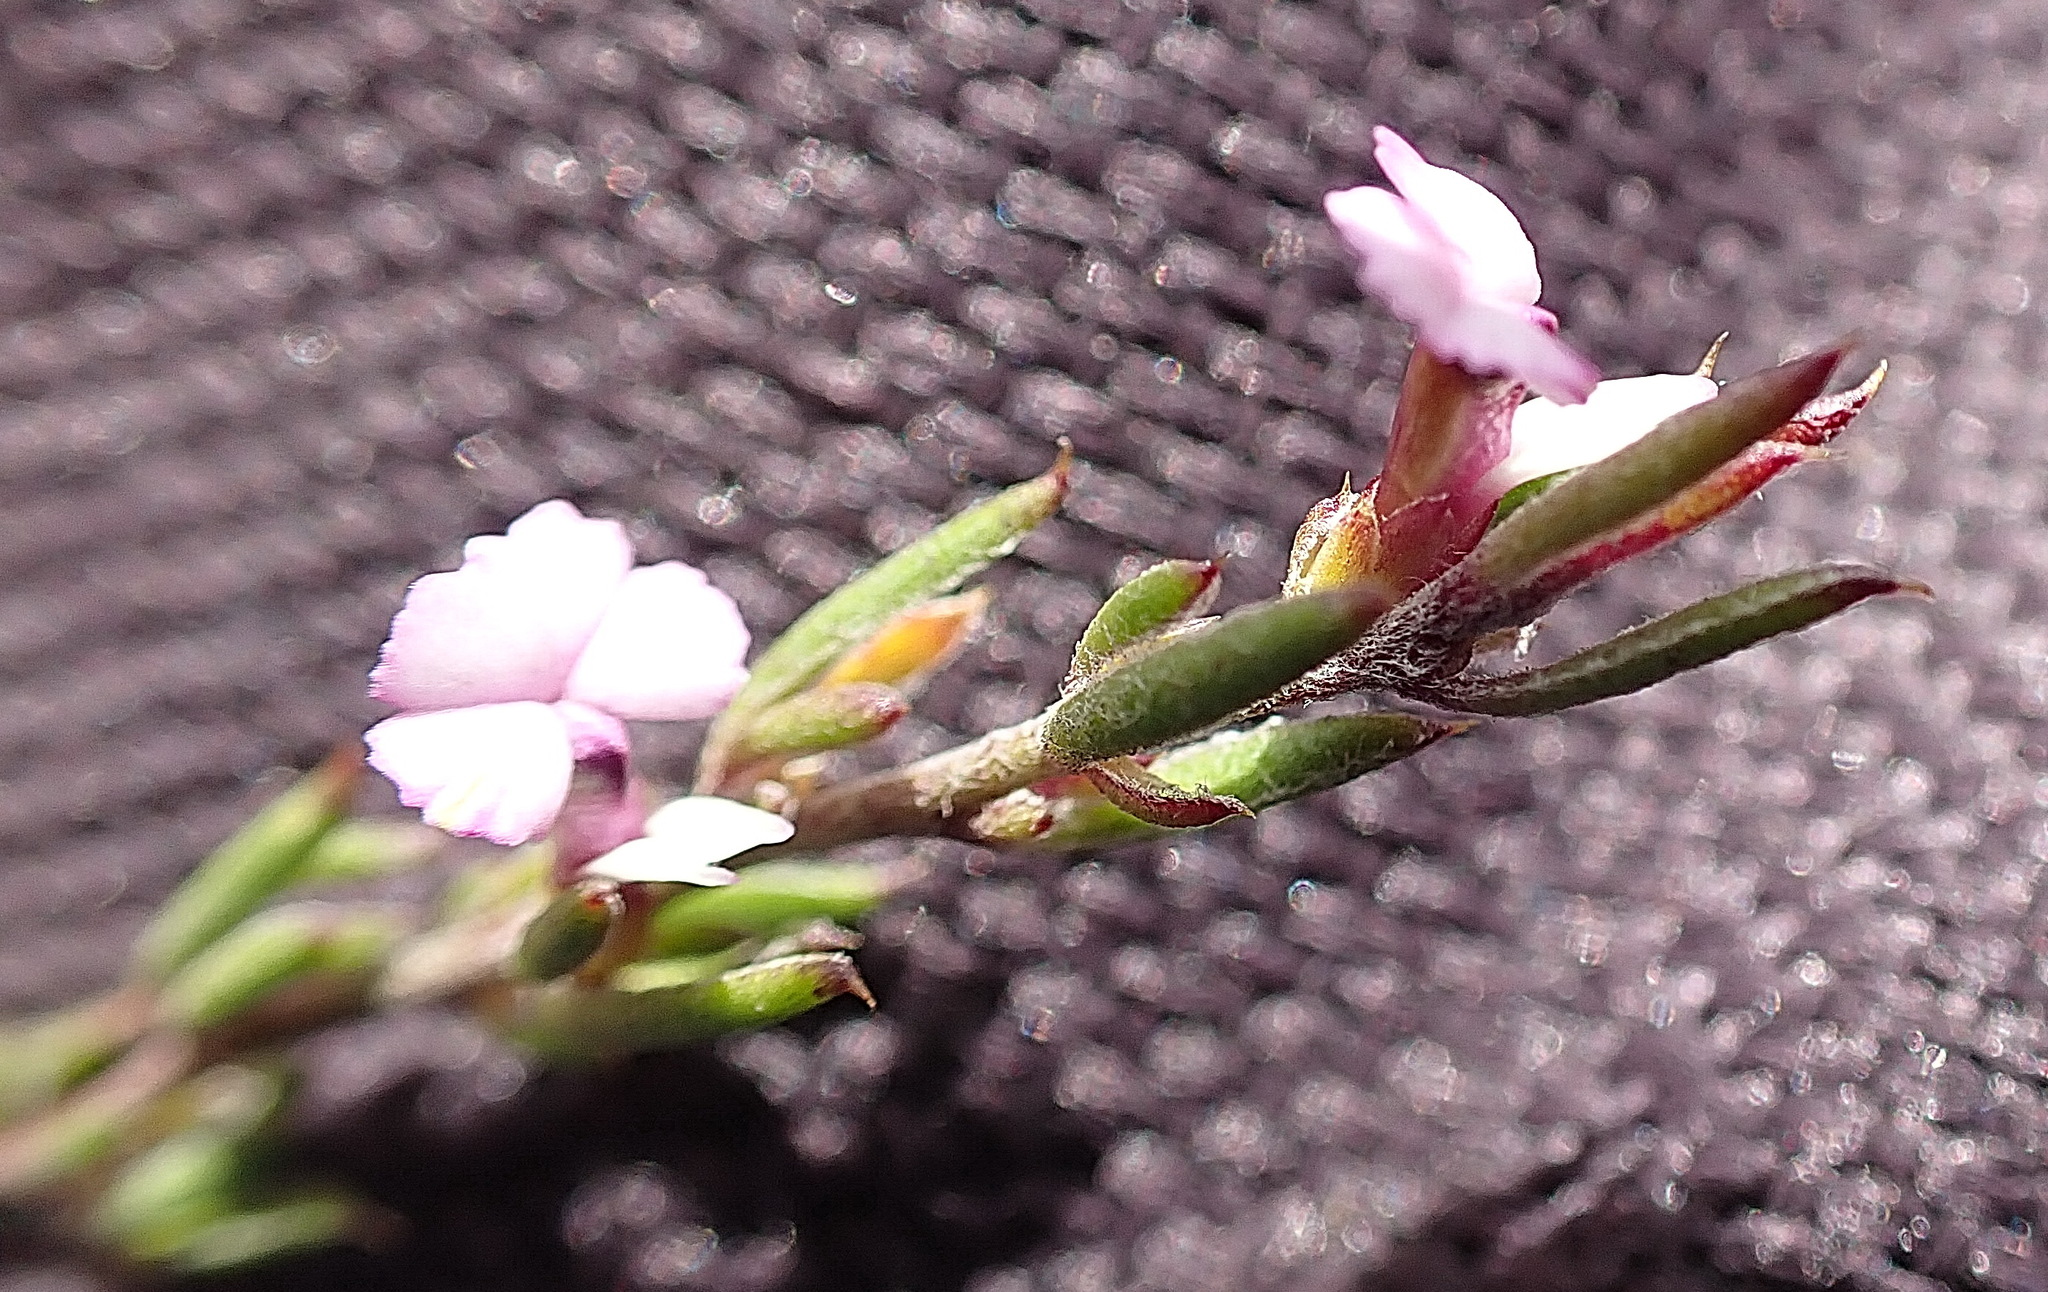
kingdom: Plantae
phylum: Tracheophyta
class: Magnoliopsida
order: Fabales
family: Polygalaceae
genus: Muraltia
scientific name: Muraltia dispersa
